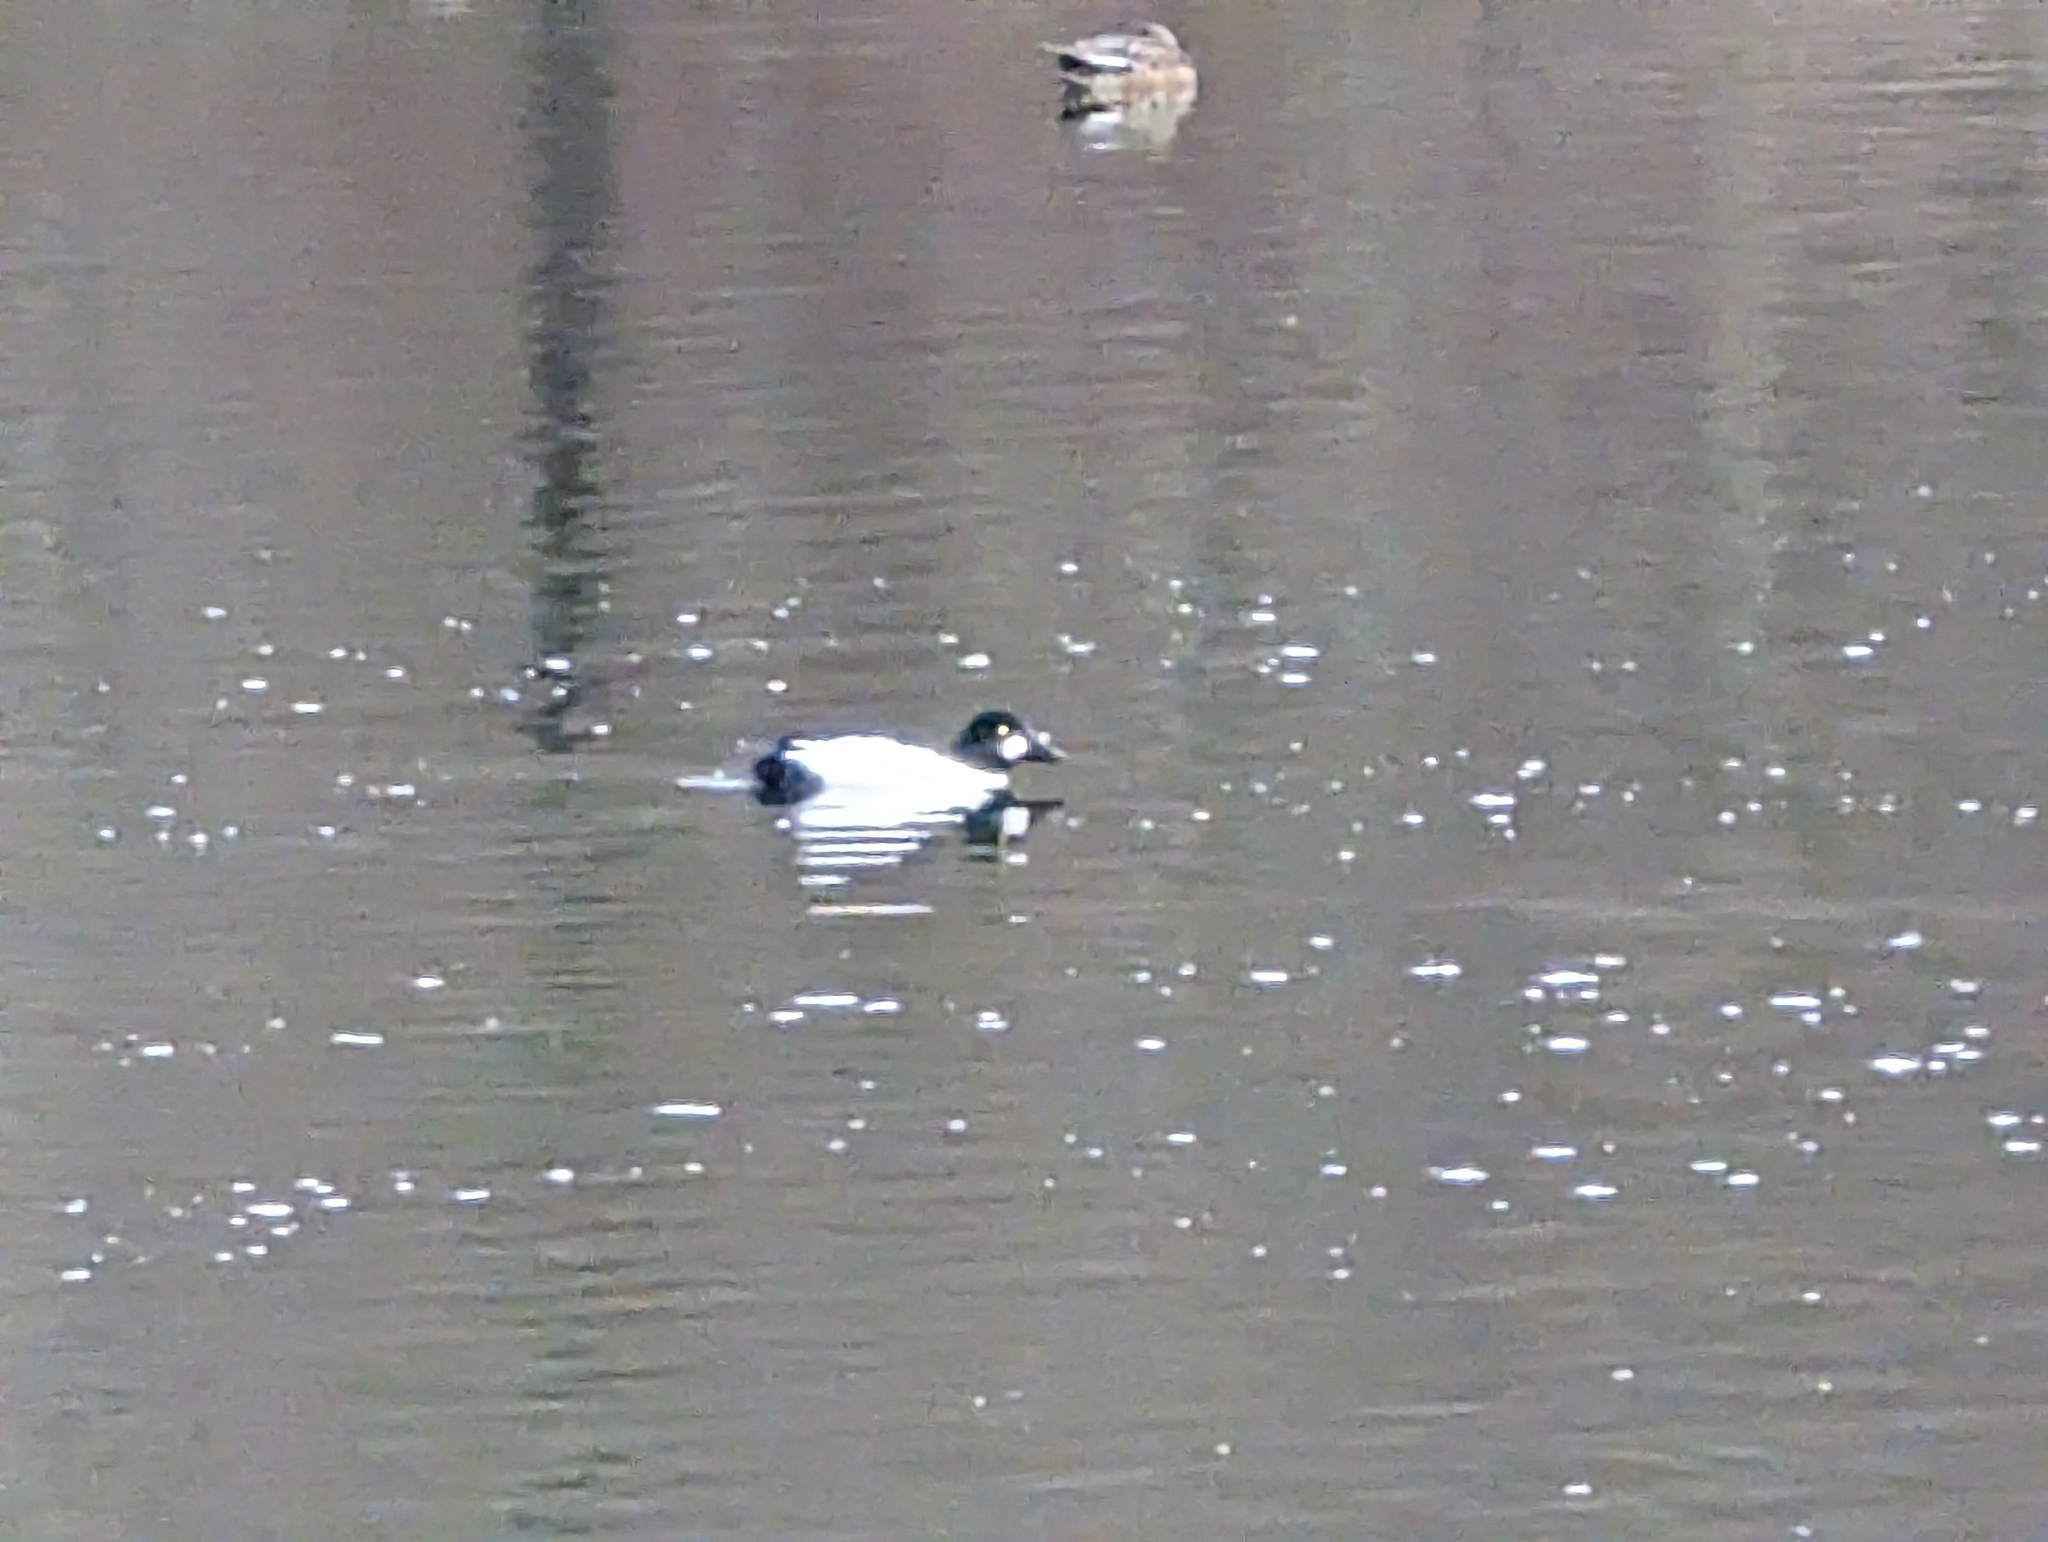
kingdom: Animalia
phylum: Chordata
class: Aves
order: Anseriformes
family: Anatidae
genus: Bucephala
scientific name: Bucephala clangula
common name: Common goldeneye
